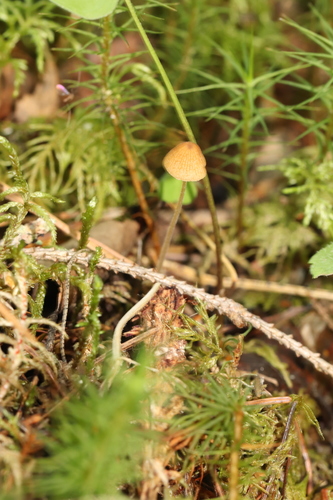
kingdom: Fungi
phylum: Basidiomycota
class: Agaricomycetes
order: Agaricales
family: Bolbitiaceae
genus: Pholiotina
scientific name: Pholiotina
